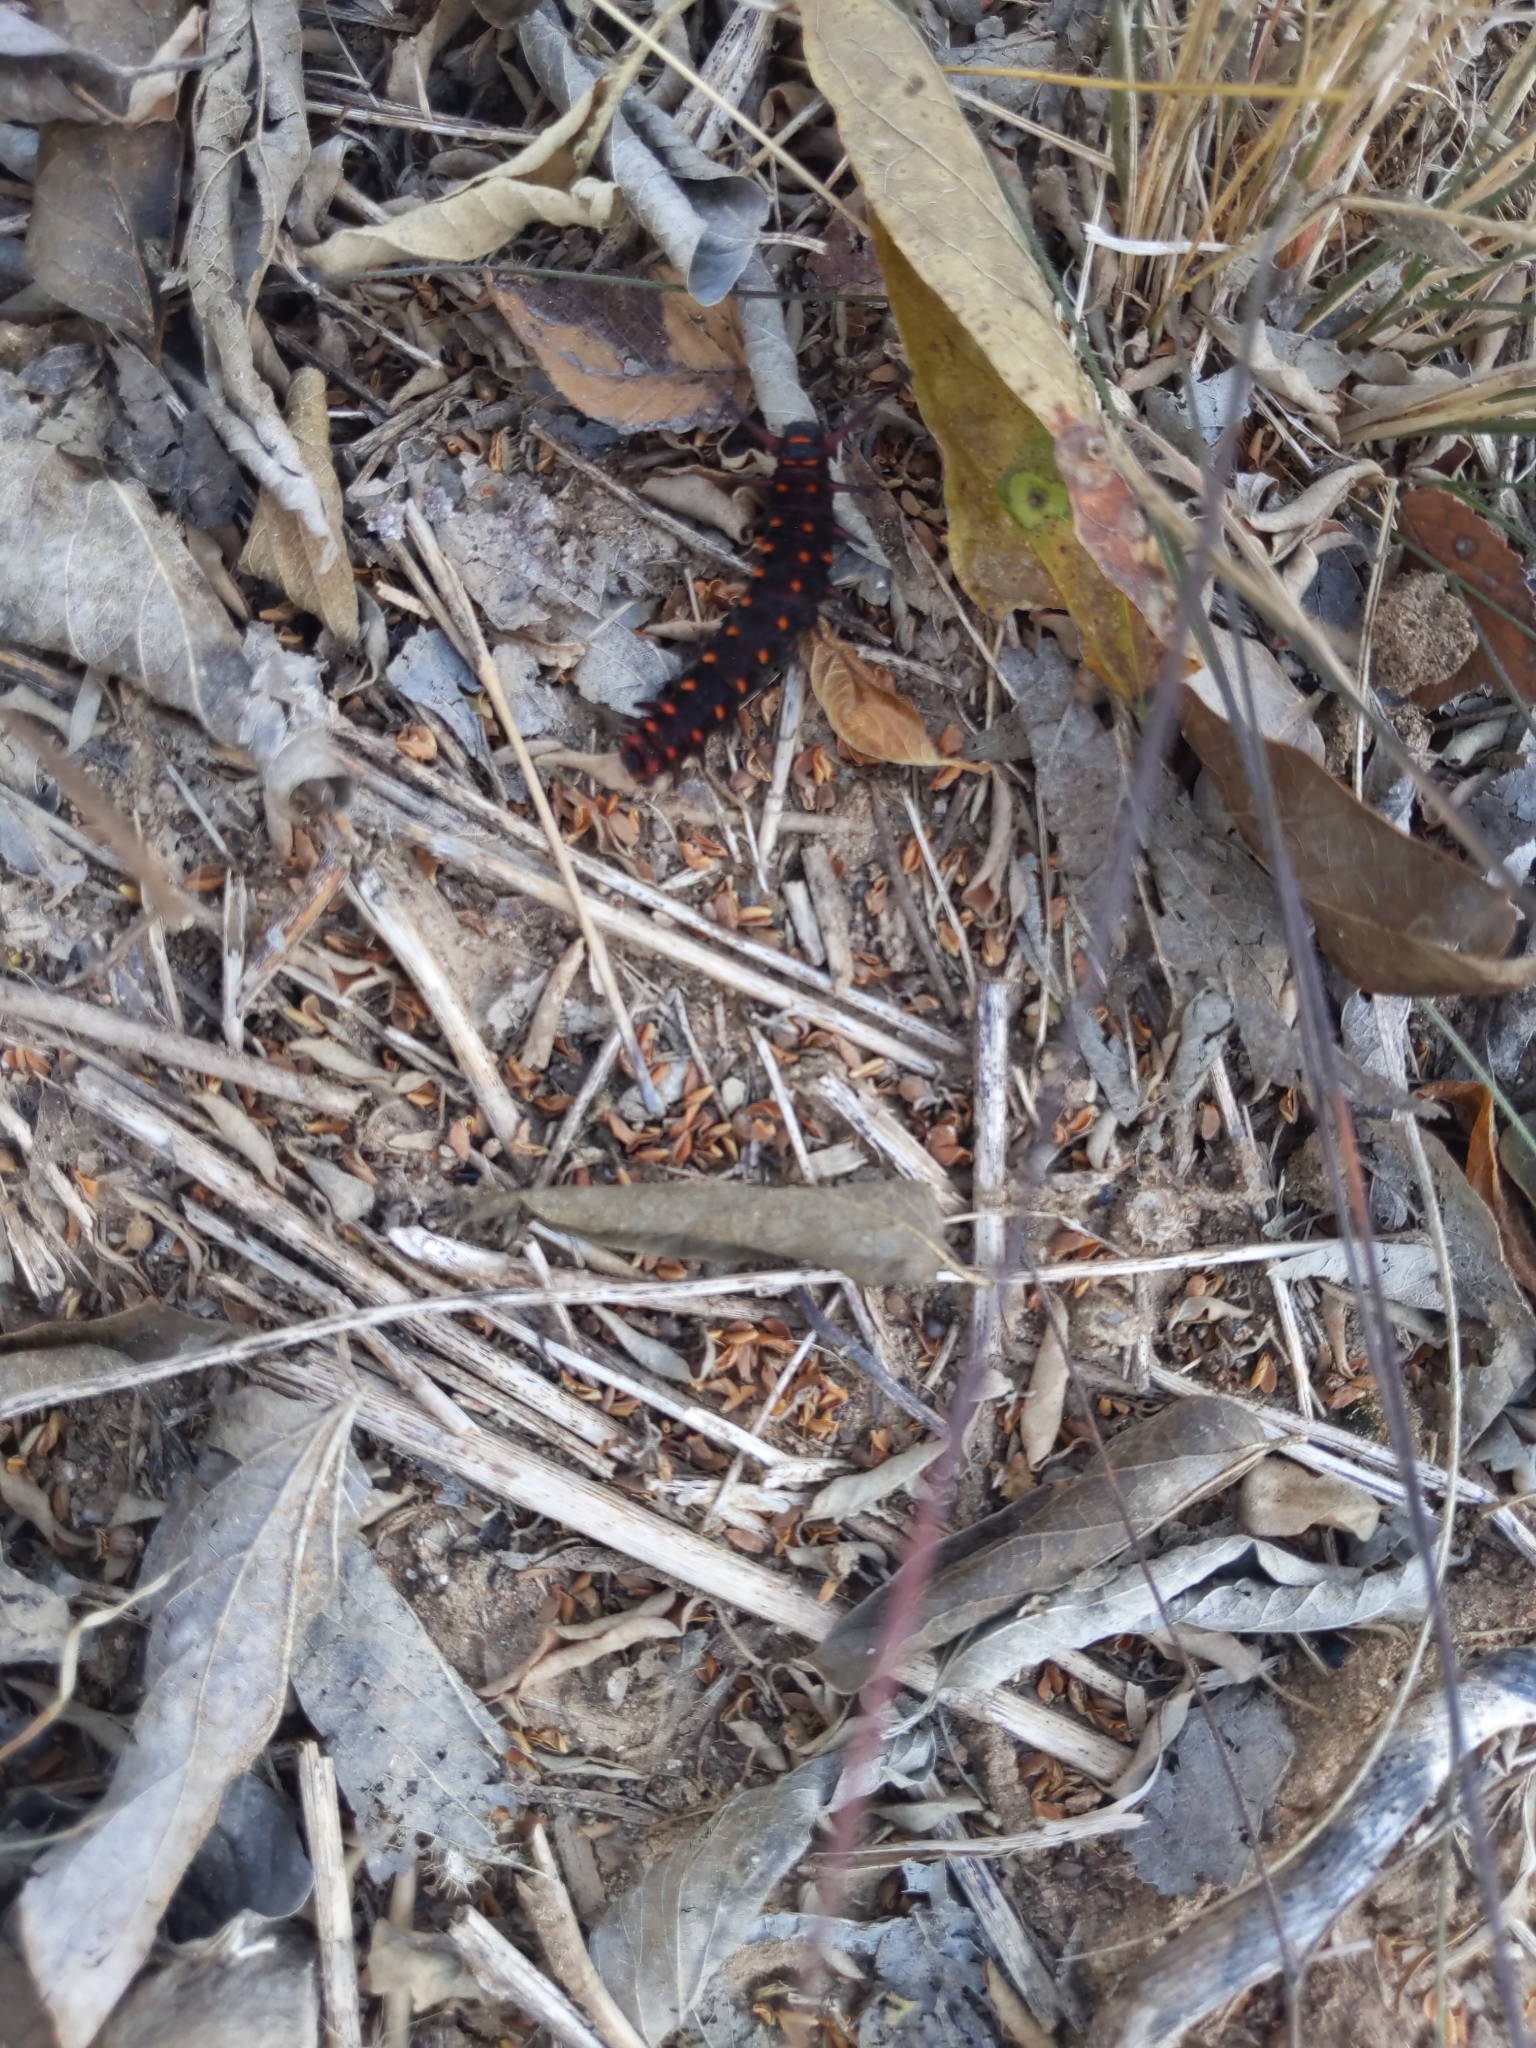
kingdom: Animalia
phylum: Arthropoda
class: Insecta
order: Lepidoptera
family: Papilionidae
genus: Battus
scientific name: Battus philenor
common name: Pipevine swallowtail
